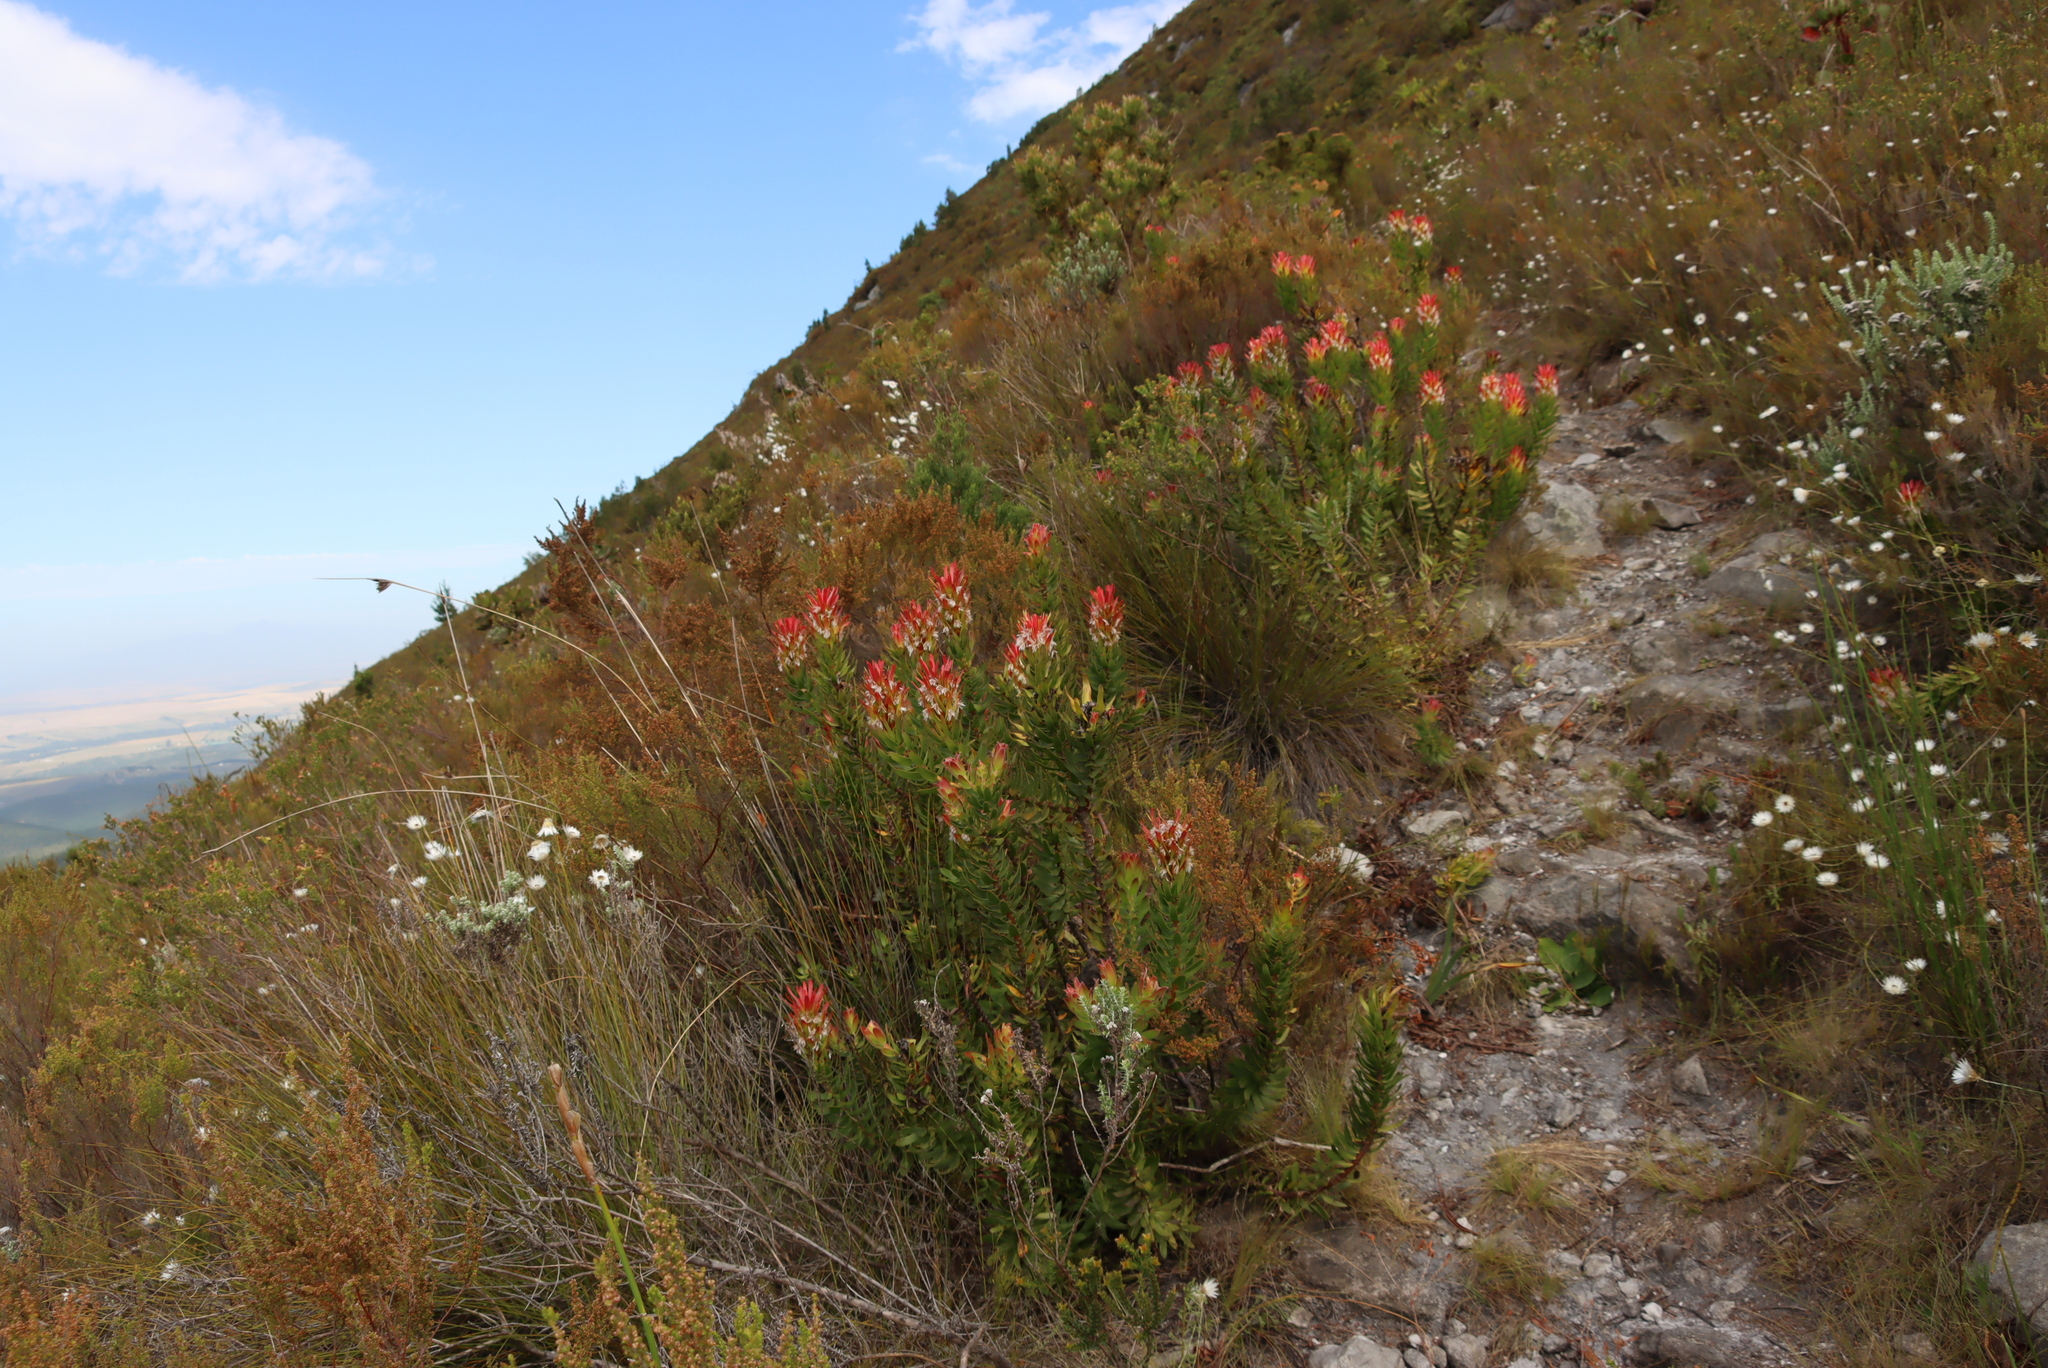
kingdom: Plantae
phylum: Tracheophyta
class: Magnoliopsida
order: Proteales
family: Proteaceae
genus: Mimetes
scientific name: Mimetes cucullatus
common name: Common pagoda
